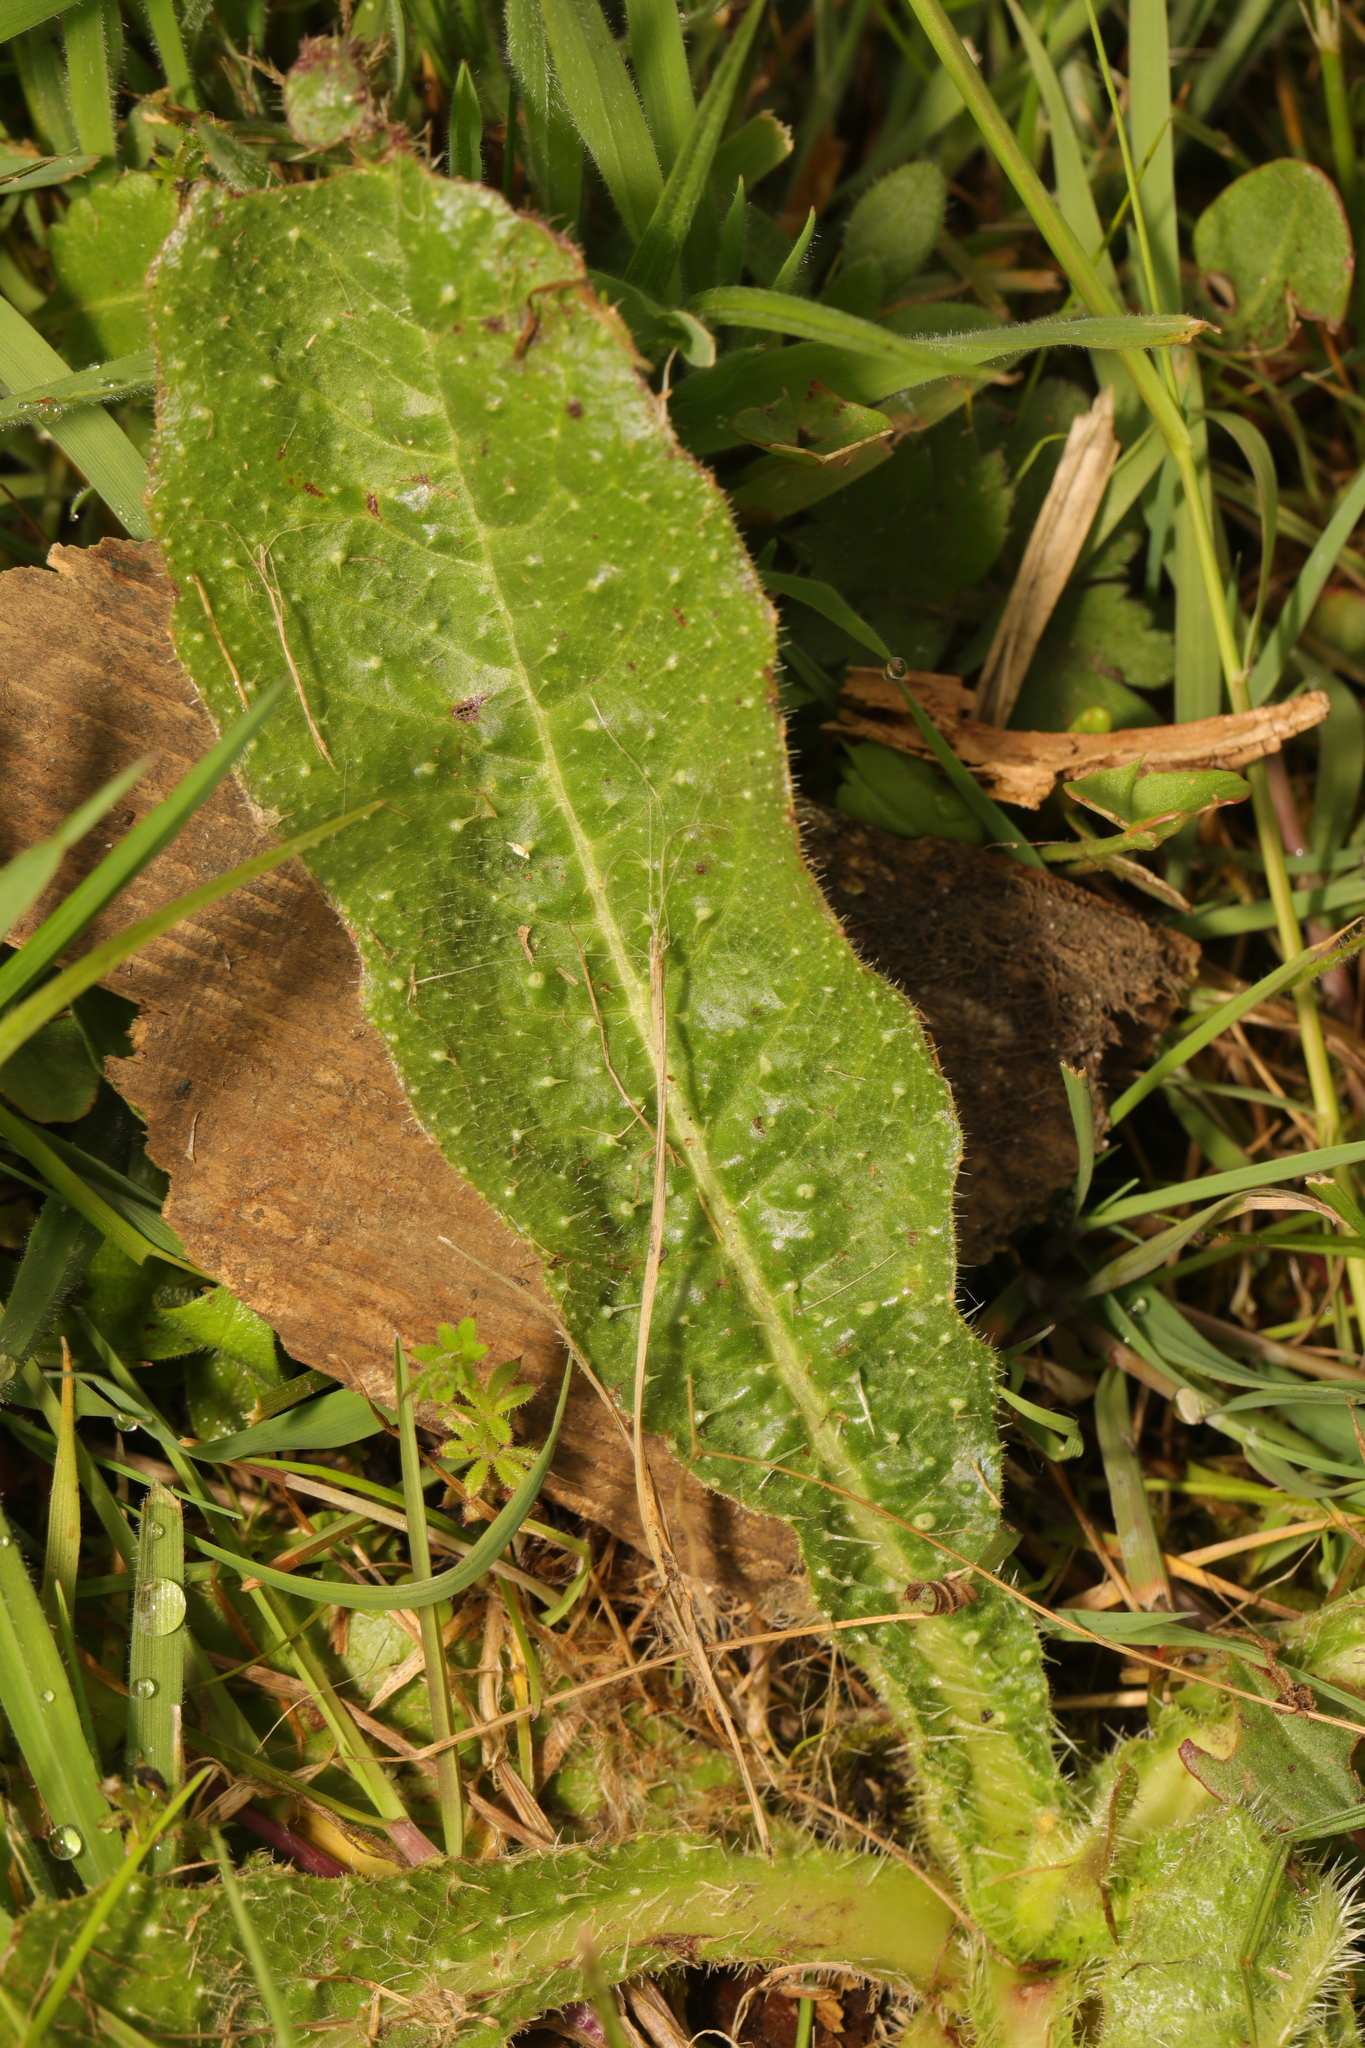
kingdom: Plantae
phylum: Tracheophyta
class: Magnoliopsida
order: Asterales
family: Asteraceae
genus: Helminthotheca
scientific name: Helminthotheca echioides
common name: Ox-tongue
